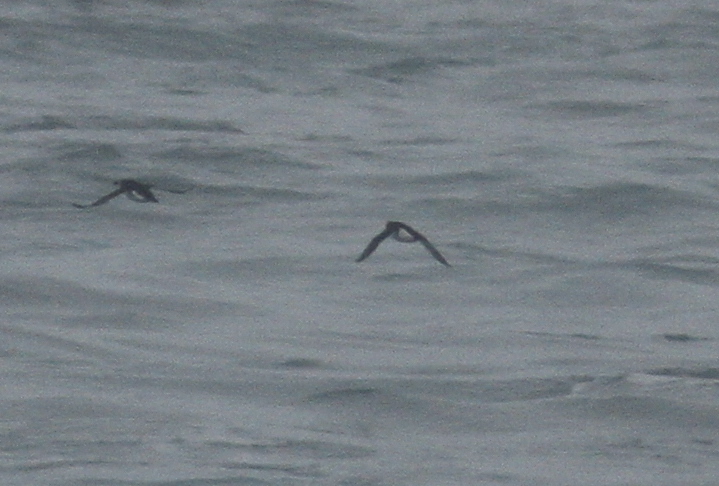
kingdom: Animalia
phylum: Chordata
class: Aves
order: Charadriiformes
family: Alcidae
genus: Alca
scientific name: Alca torda
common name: Razorbill
